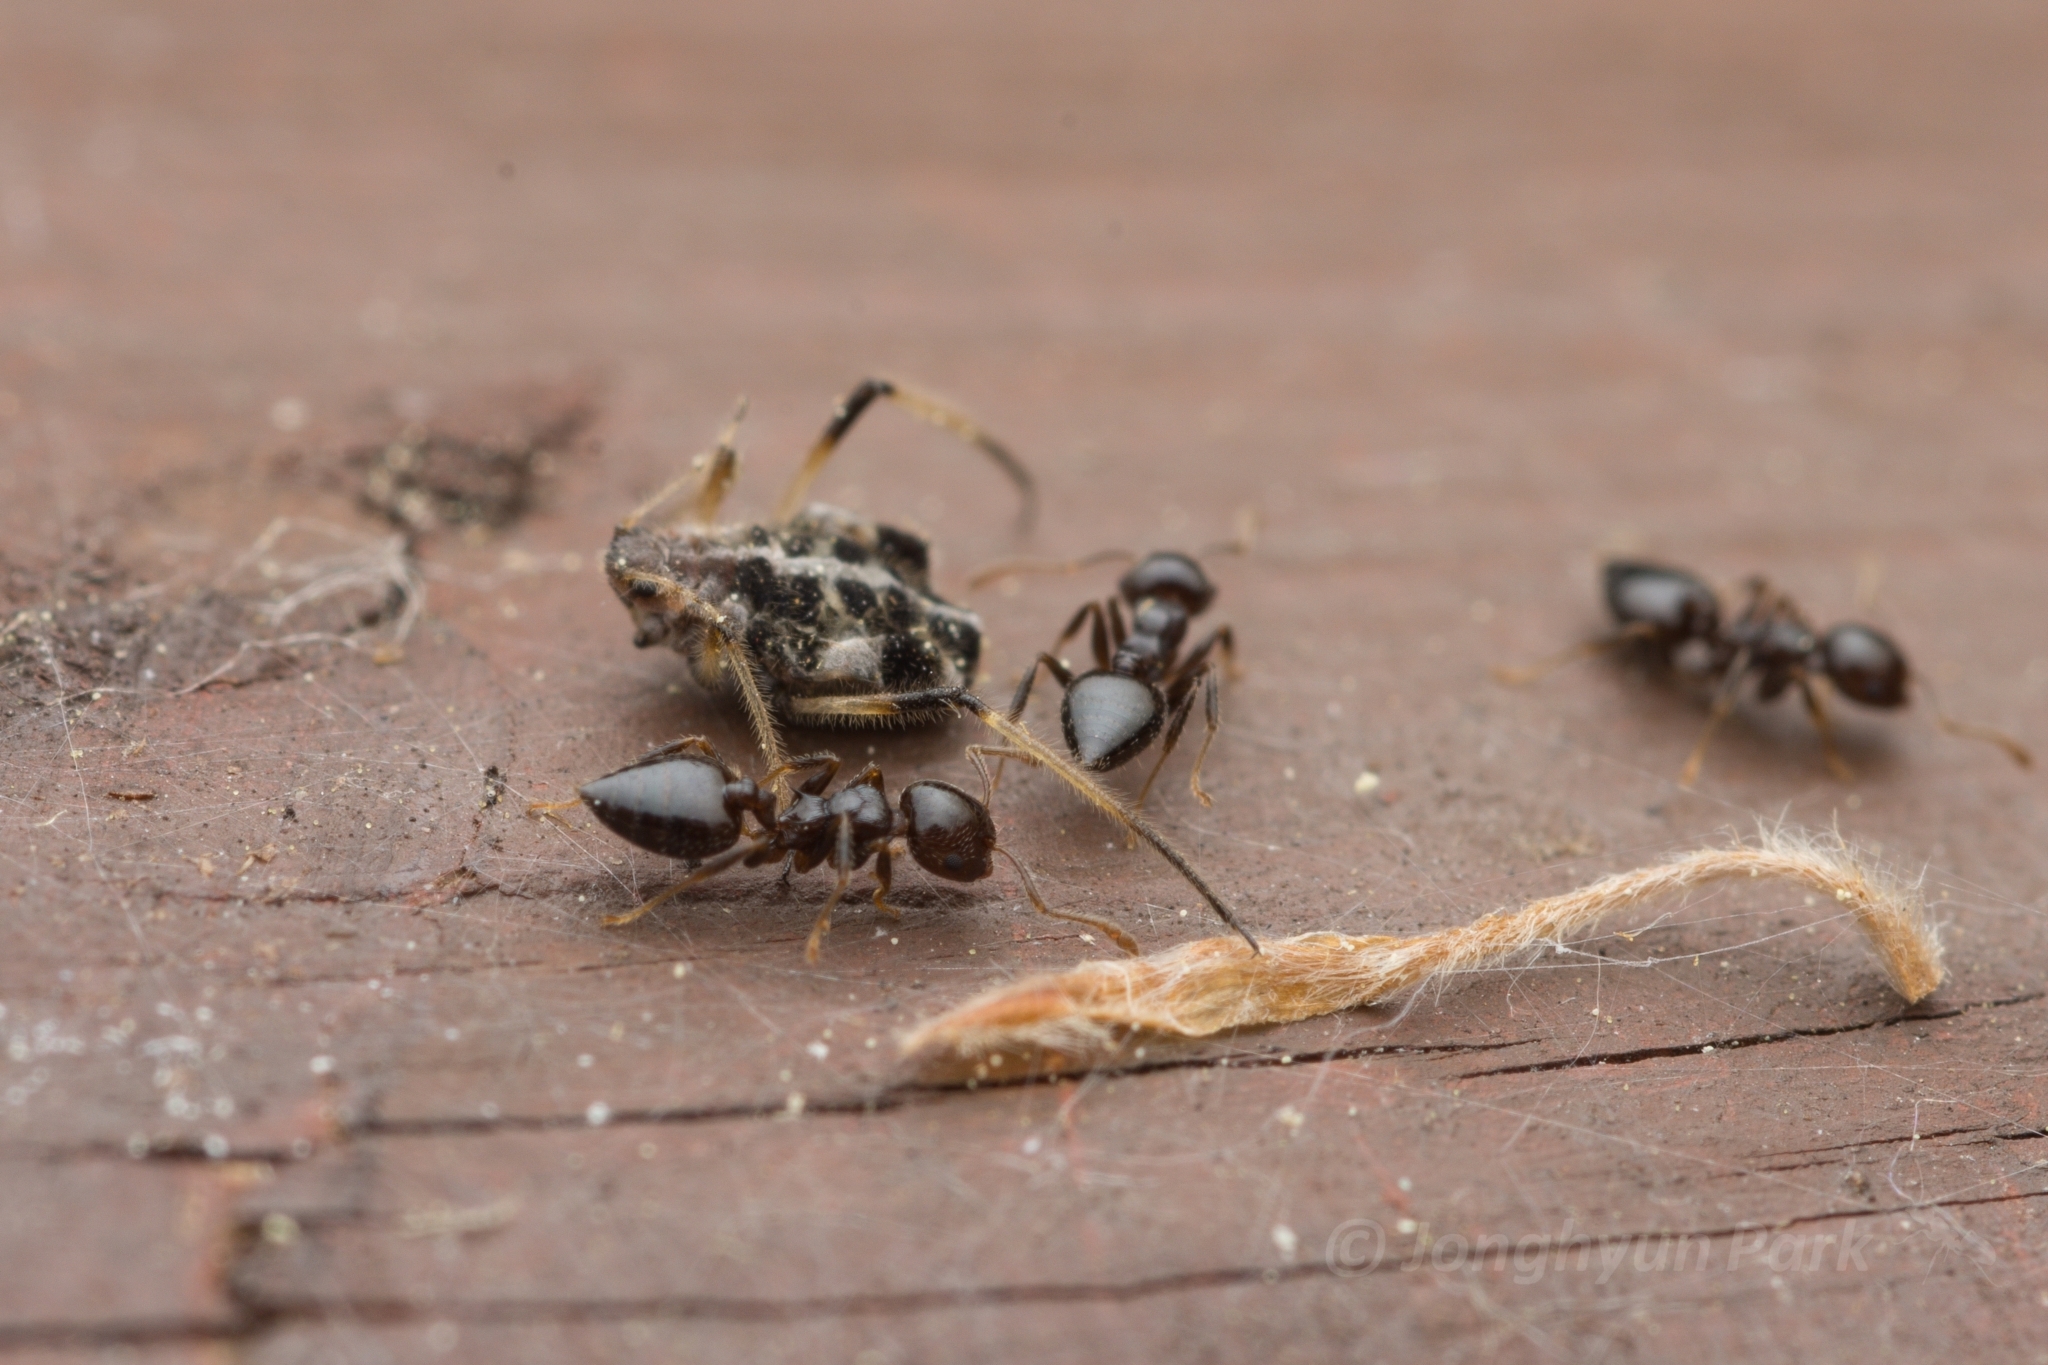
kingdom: Animalia
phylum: Arthropoda
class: Insecta
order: Hymenoptera
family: Formicidae
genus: Crematogaster
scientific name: Crematogaster teranishii
